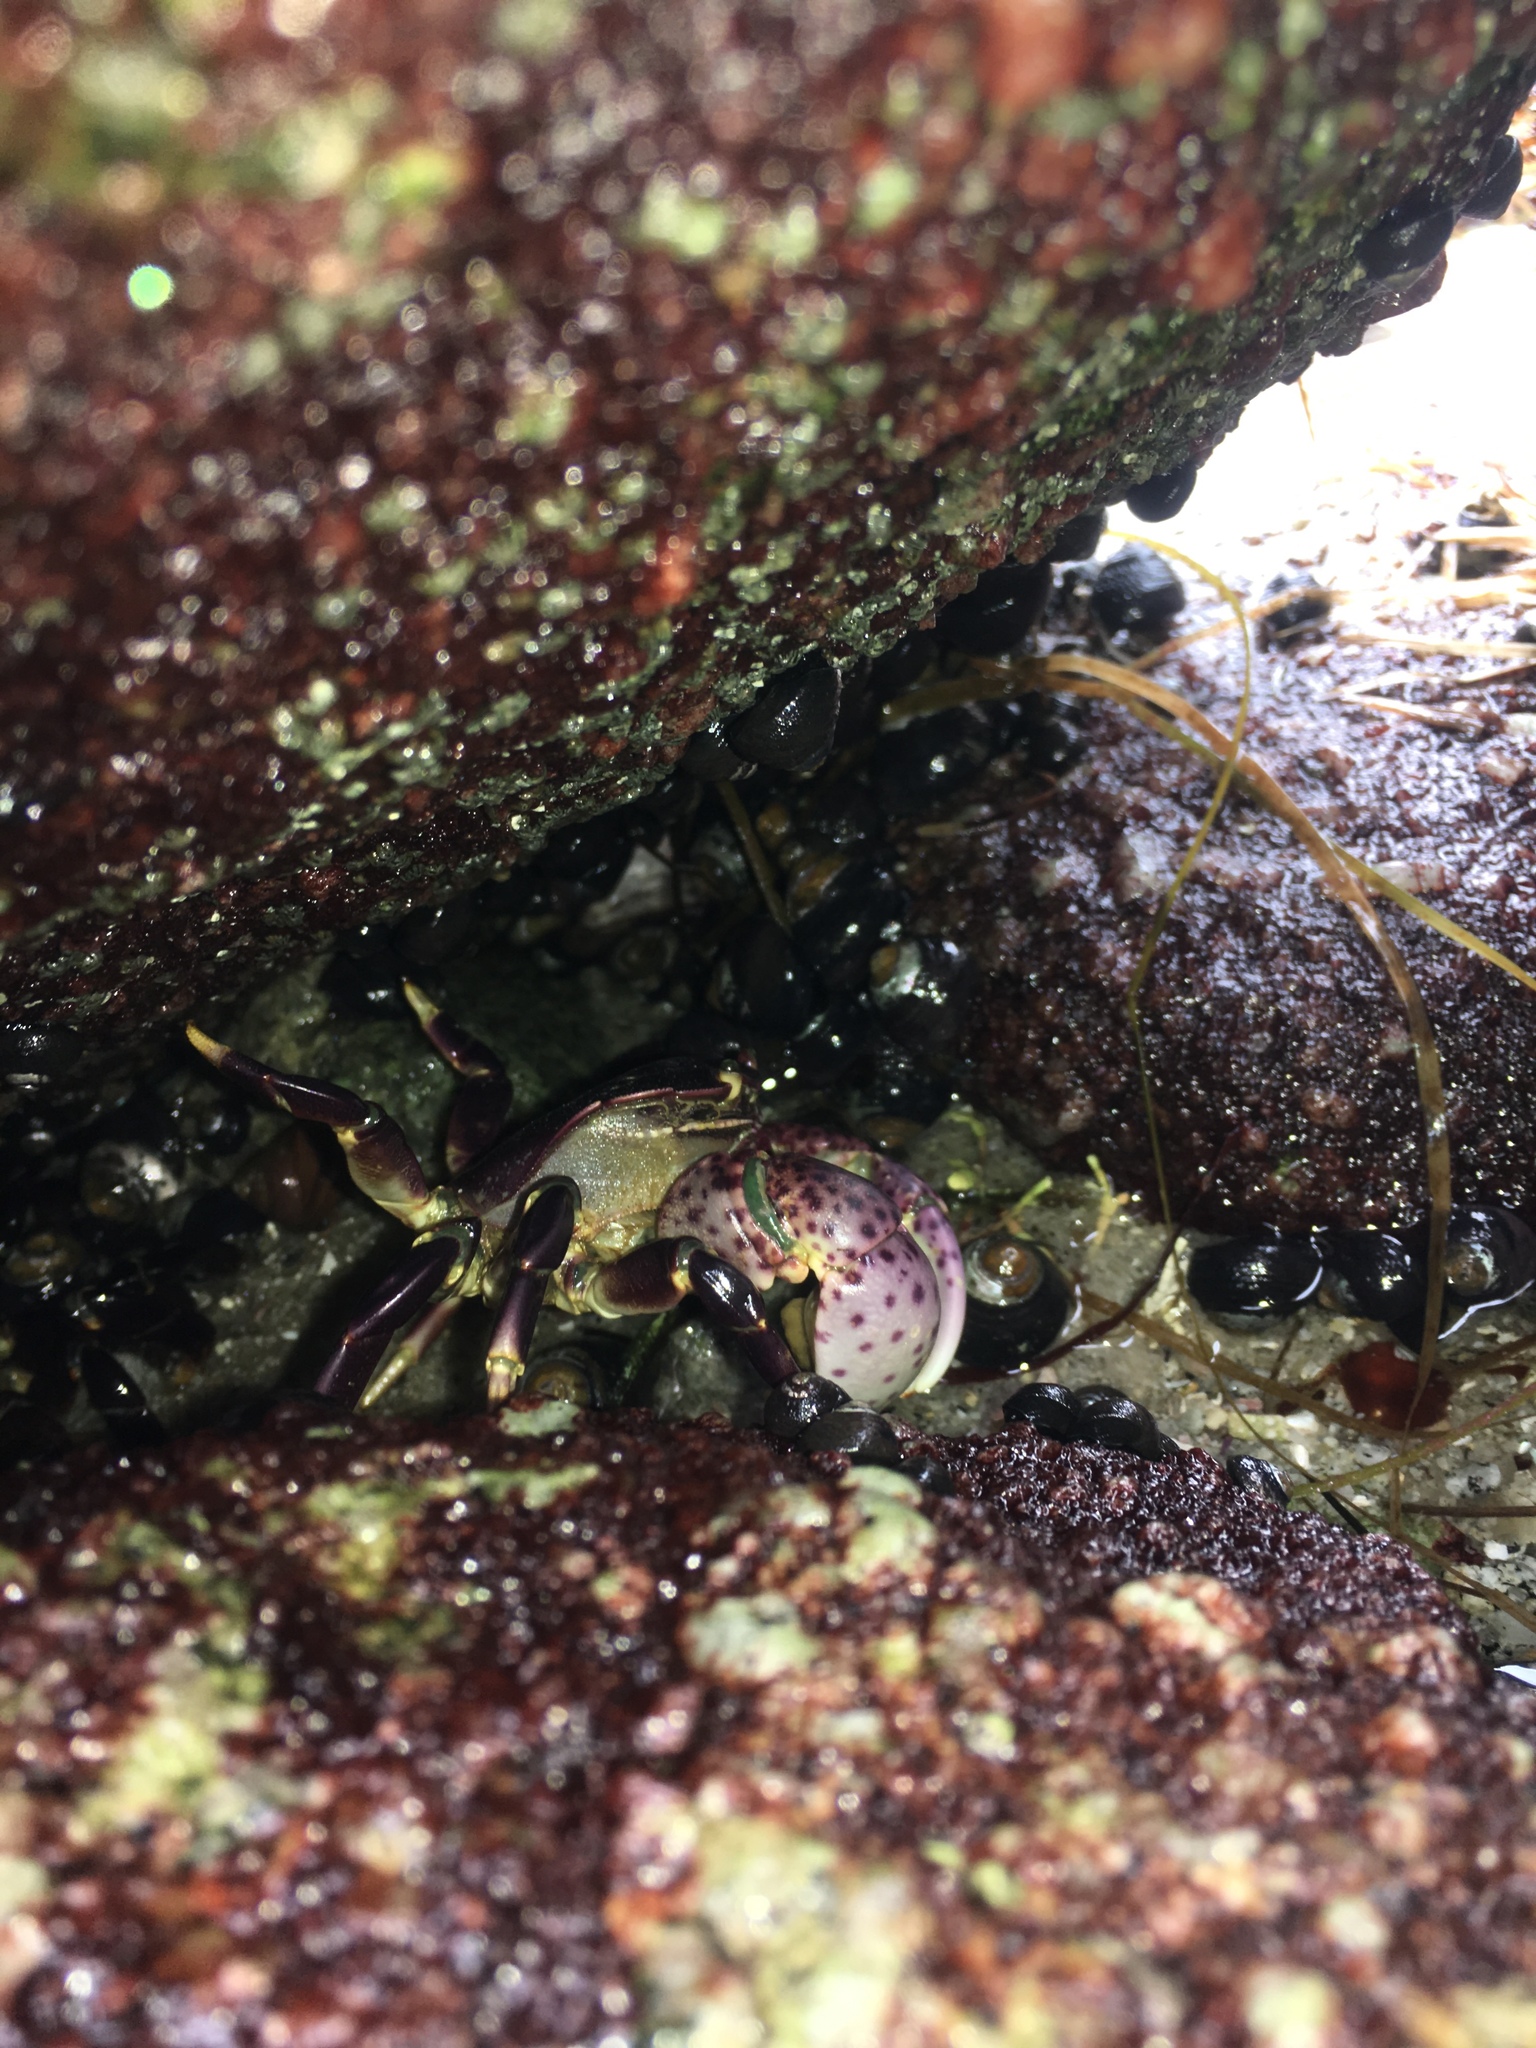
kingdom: Animalia
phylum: Arthropoda
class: Malacostraca
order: Decapoda
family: Varunidae
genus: Hemigrapsus
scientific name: Hemigrapsus nudus
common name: Purple shore crab
